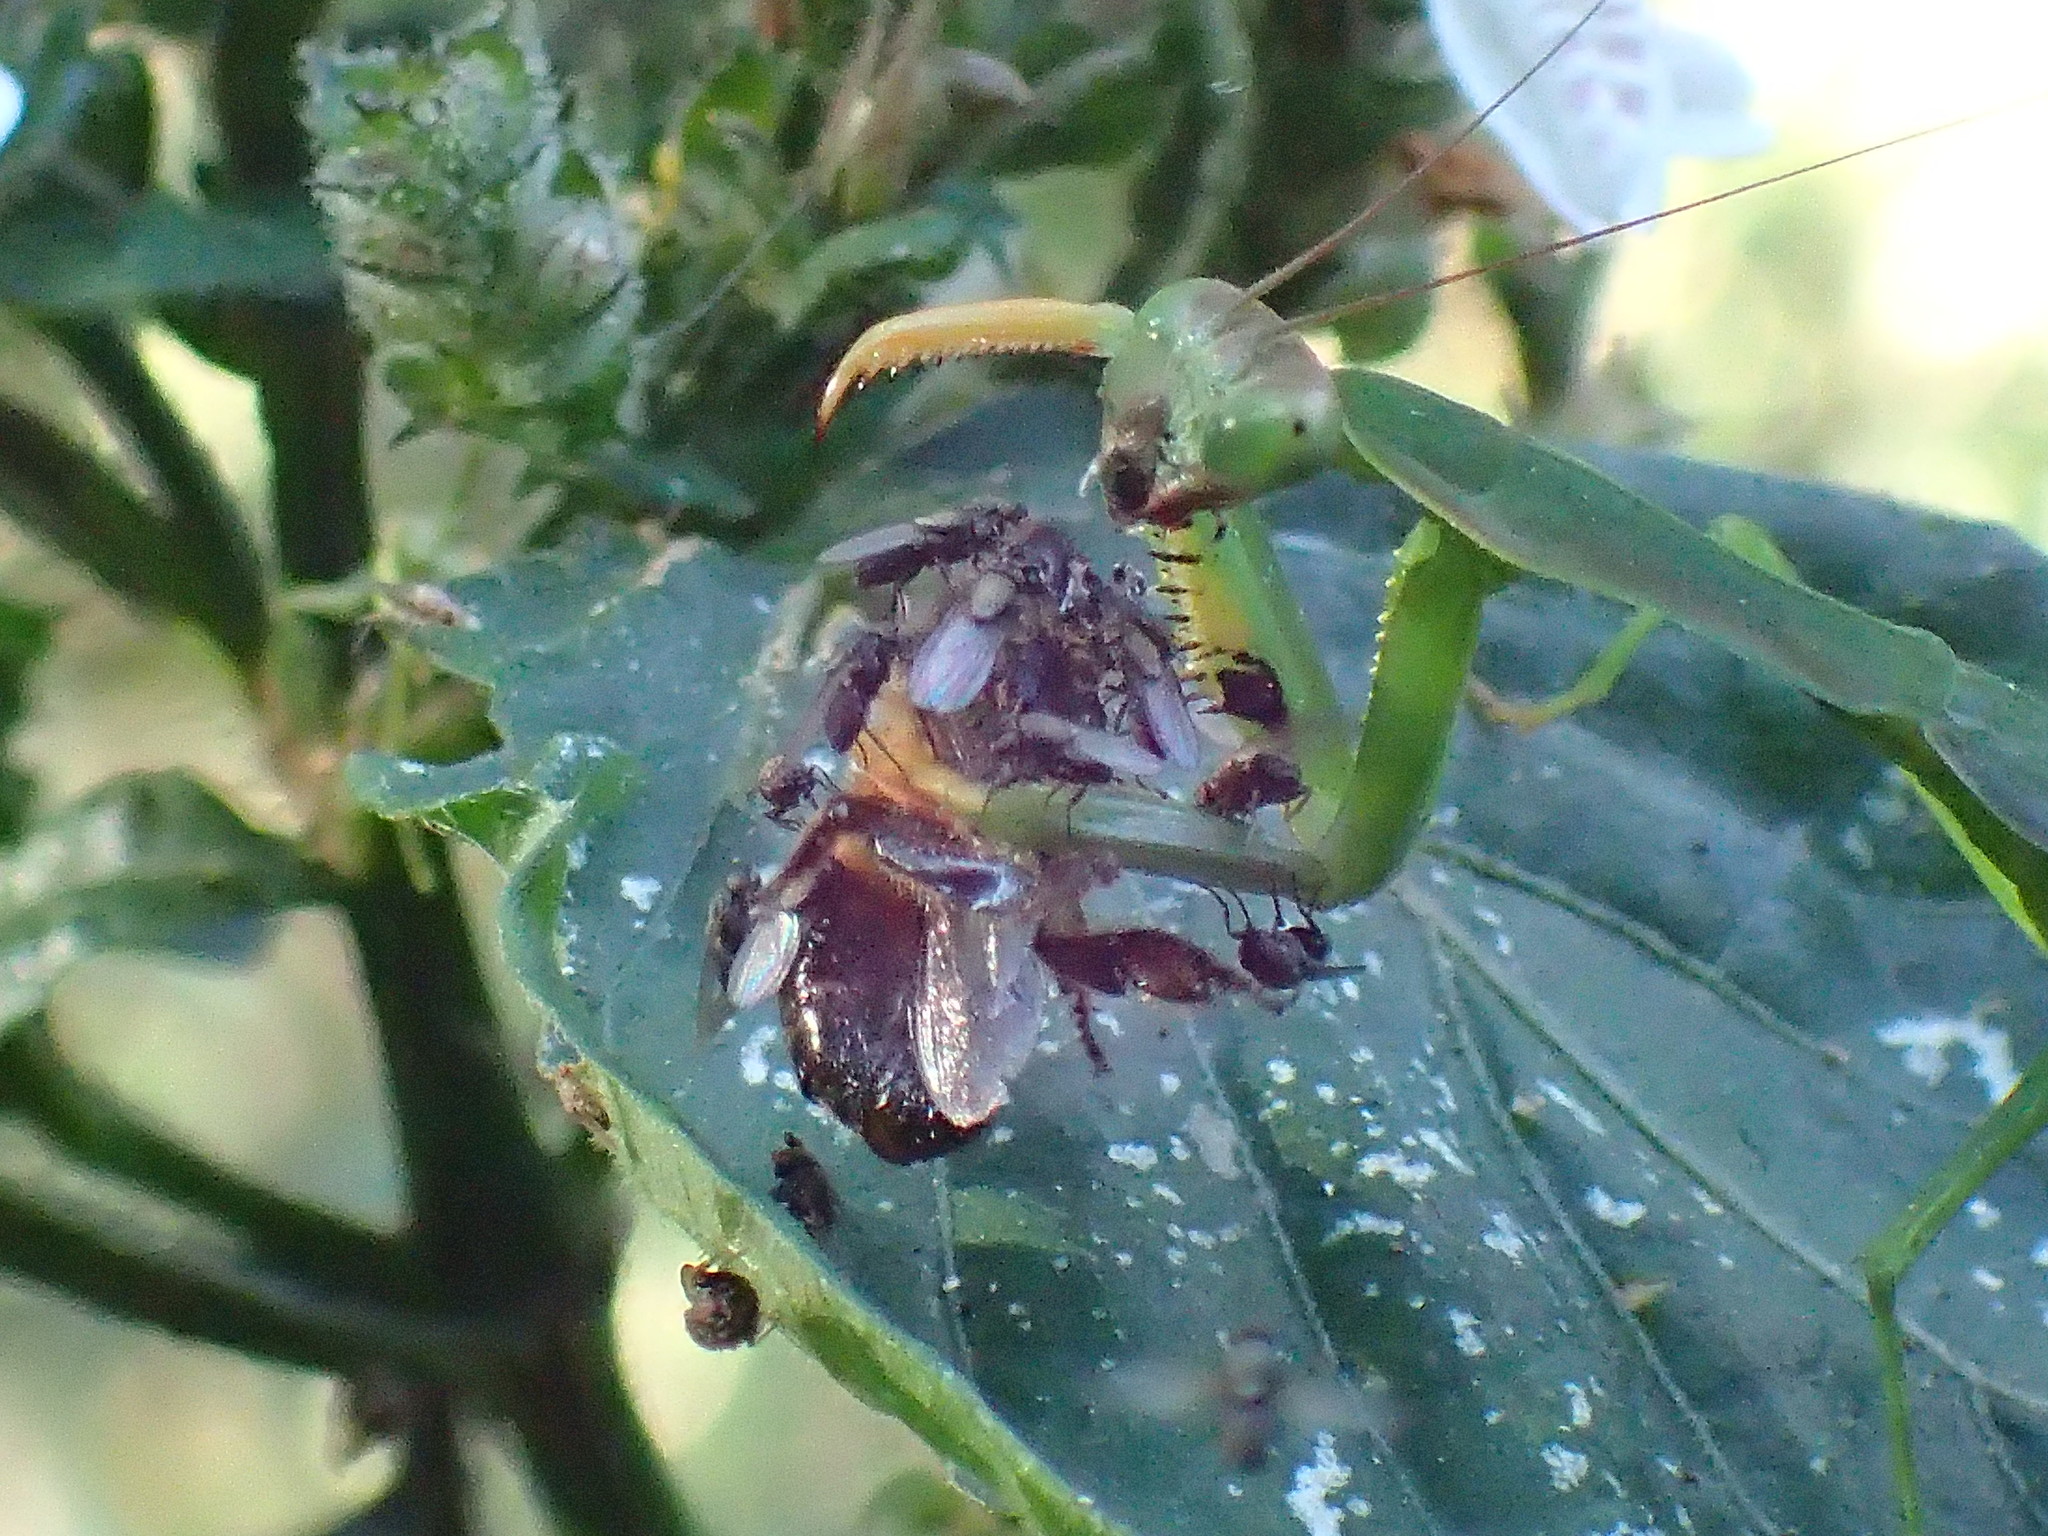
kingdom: Animalia
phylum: Arthropoda
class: Insecta
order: Hymenoptera
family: Apidae
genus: Apis
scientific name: Apis mellifera
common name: Honey bee
